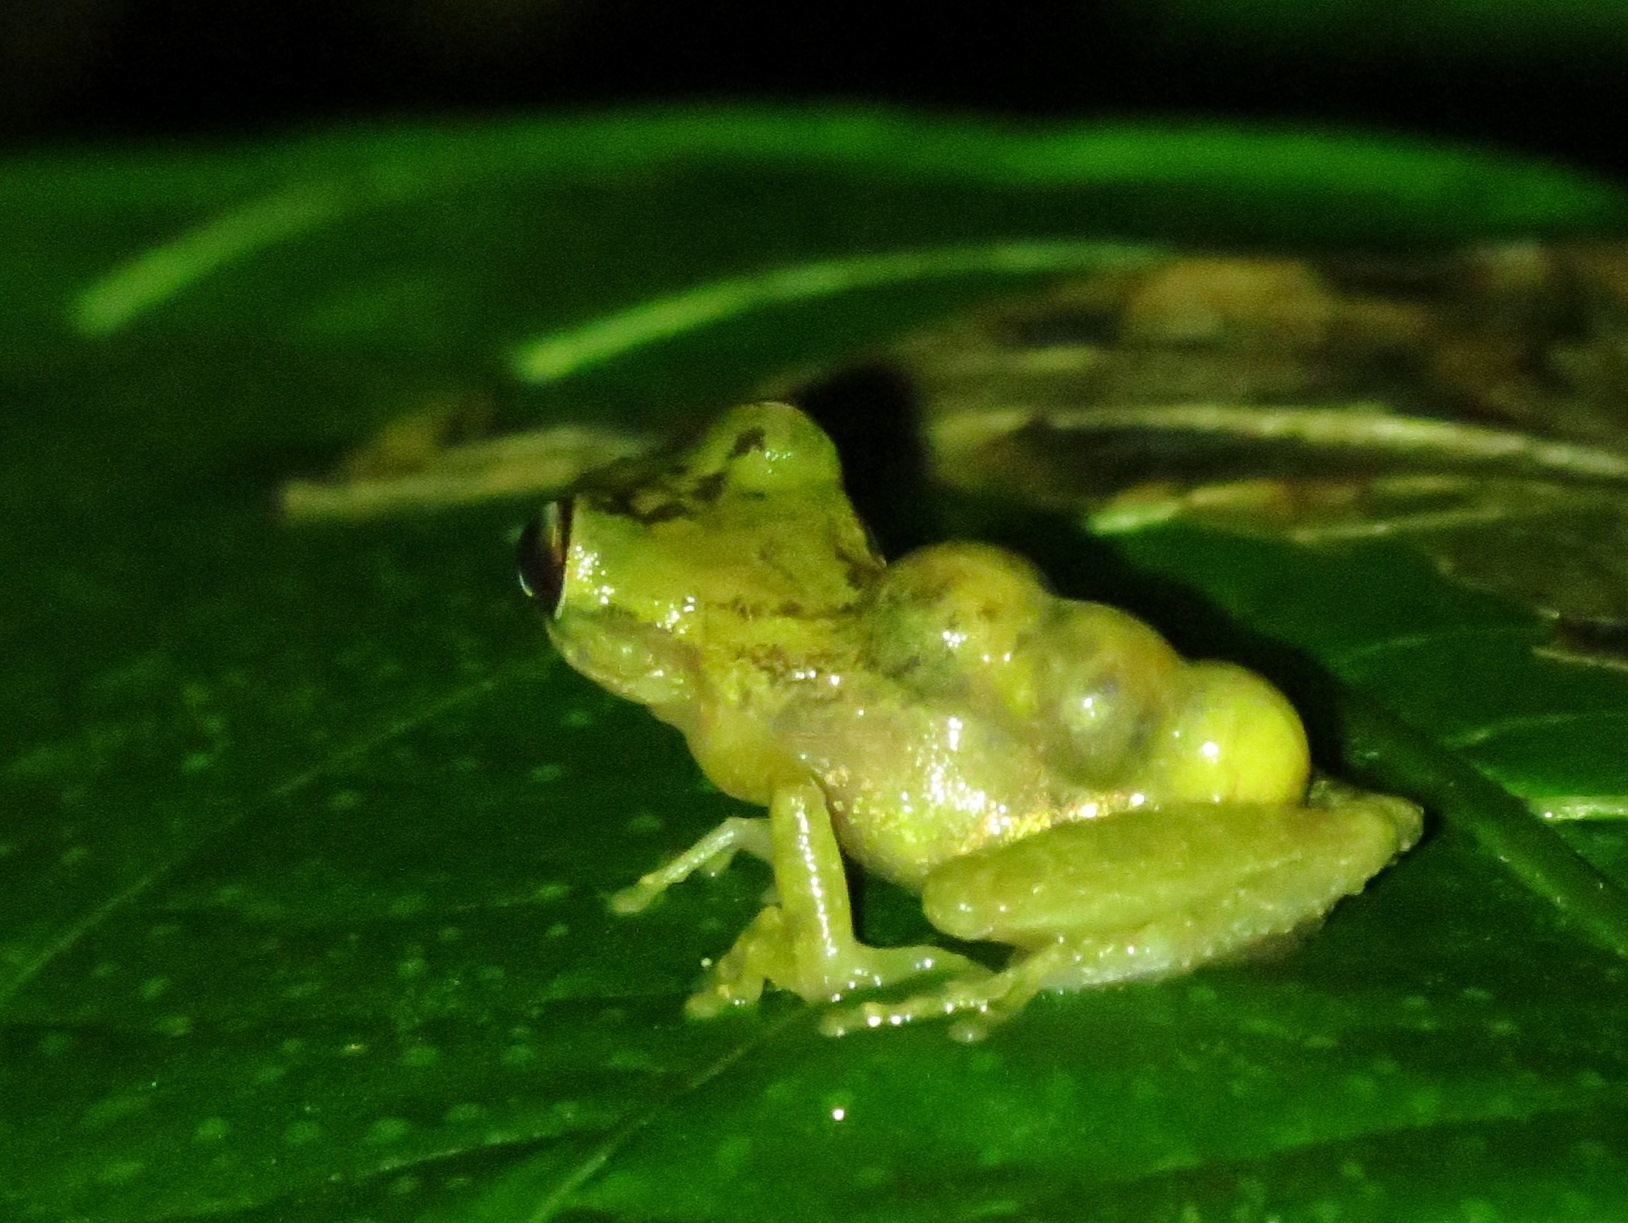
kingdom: Animalia
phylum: Chordata
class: Amphibia
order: Anura
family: Hemiphractidae
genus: Flectonotus
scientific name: Flectonotus fitzgeraldi
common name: Marsupial frog
